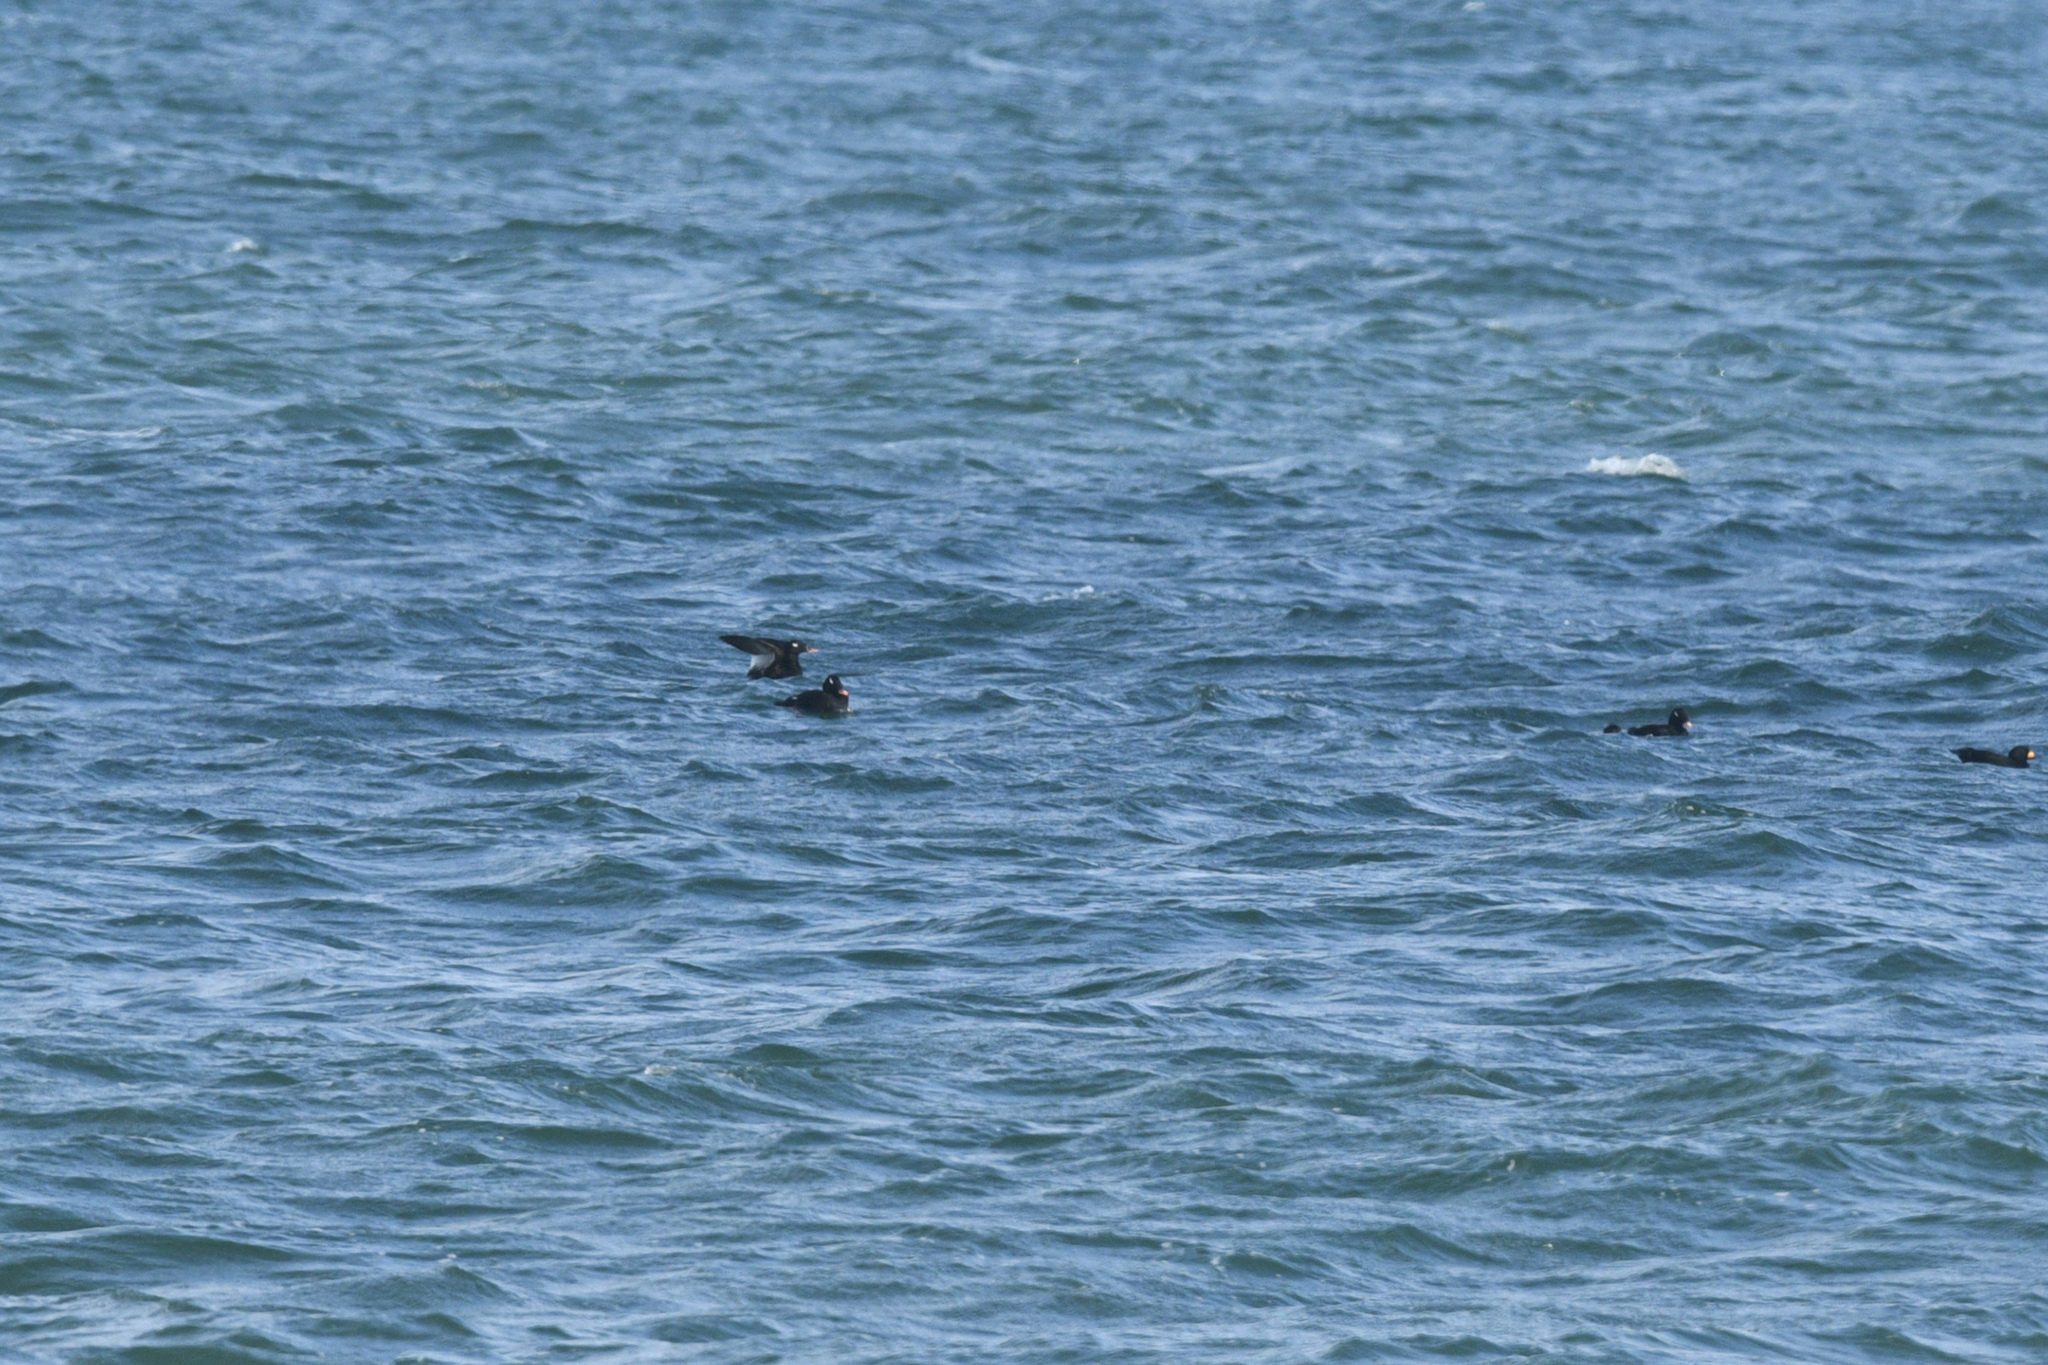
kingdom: Animalia
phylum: Chordata
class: Aves
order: Anseriformes
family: Anatidae
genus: Melanitta
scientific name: Melanitta stejnegeri
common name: Stejneger's scoter
